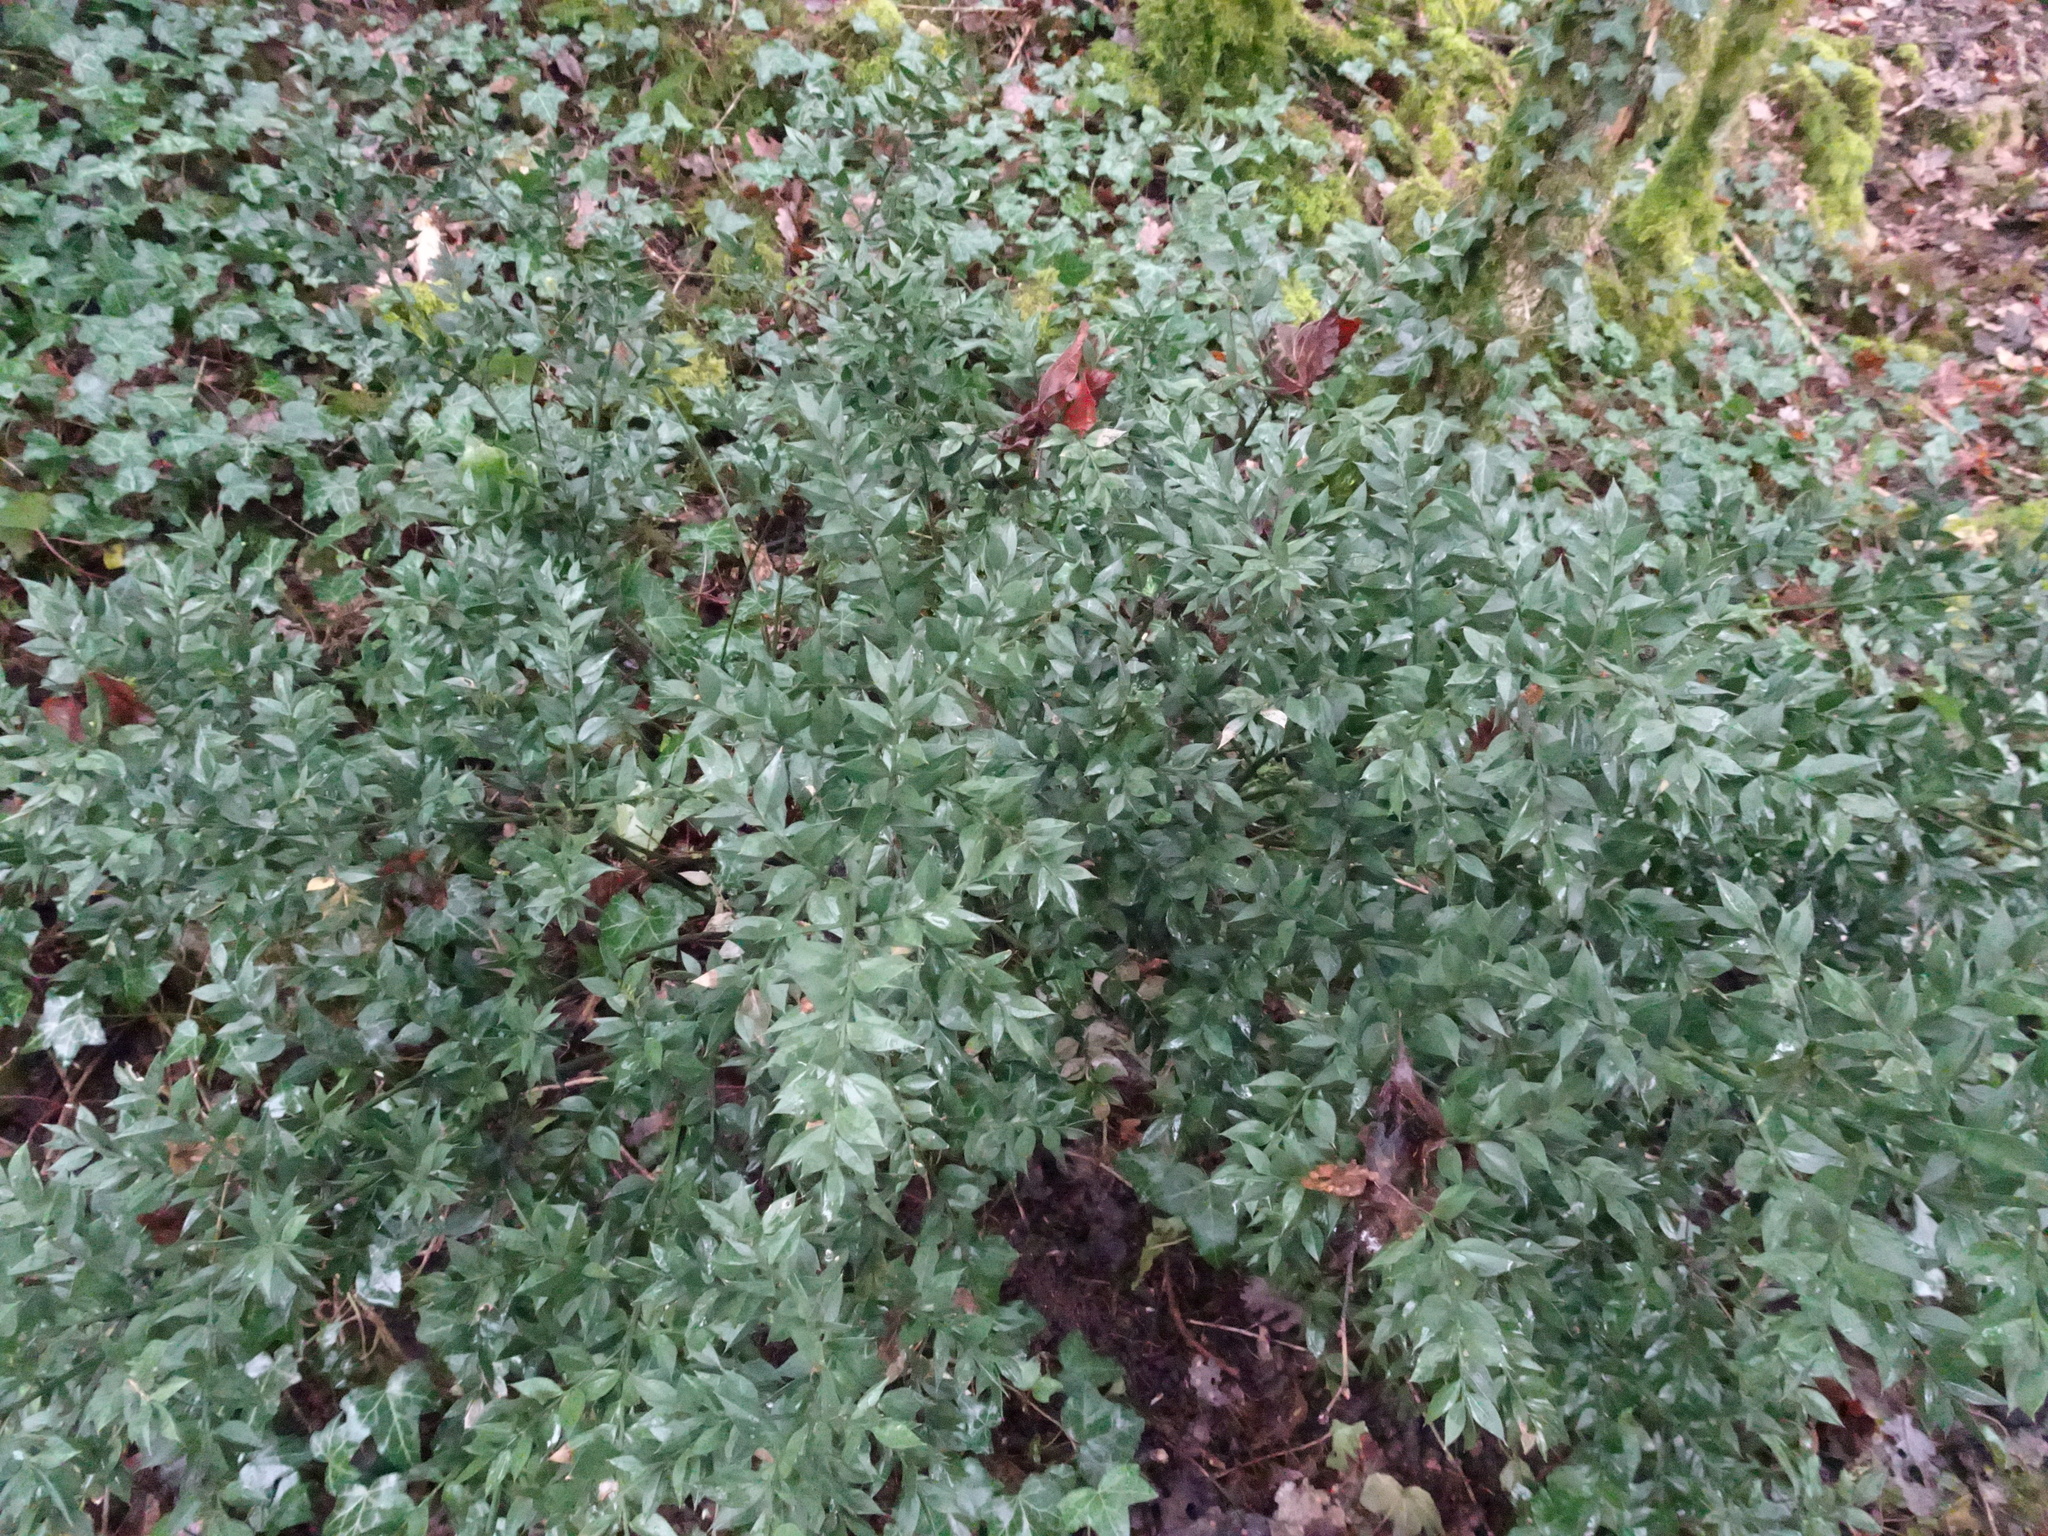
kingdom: Plantae
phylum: Tracheophyta
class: Liliopsida
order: Asparagales
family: Asparagaceae
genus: Ruscus
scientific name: Ruscus aculeatus
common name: Butcher's-broom
